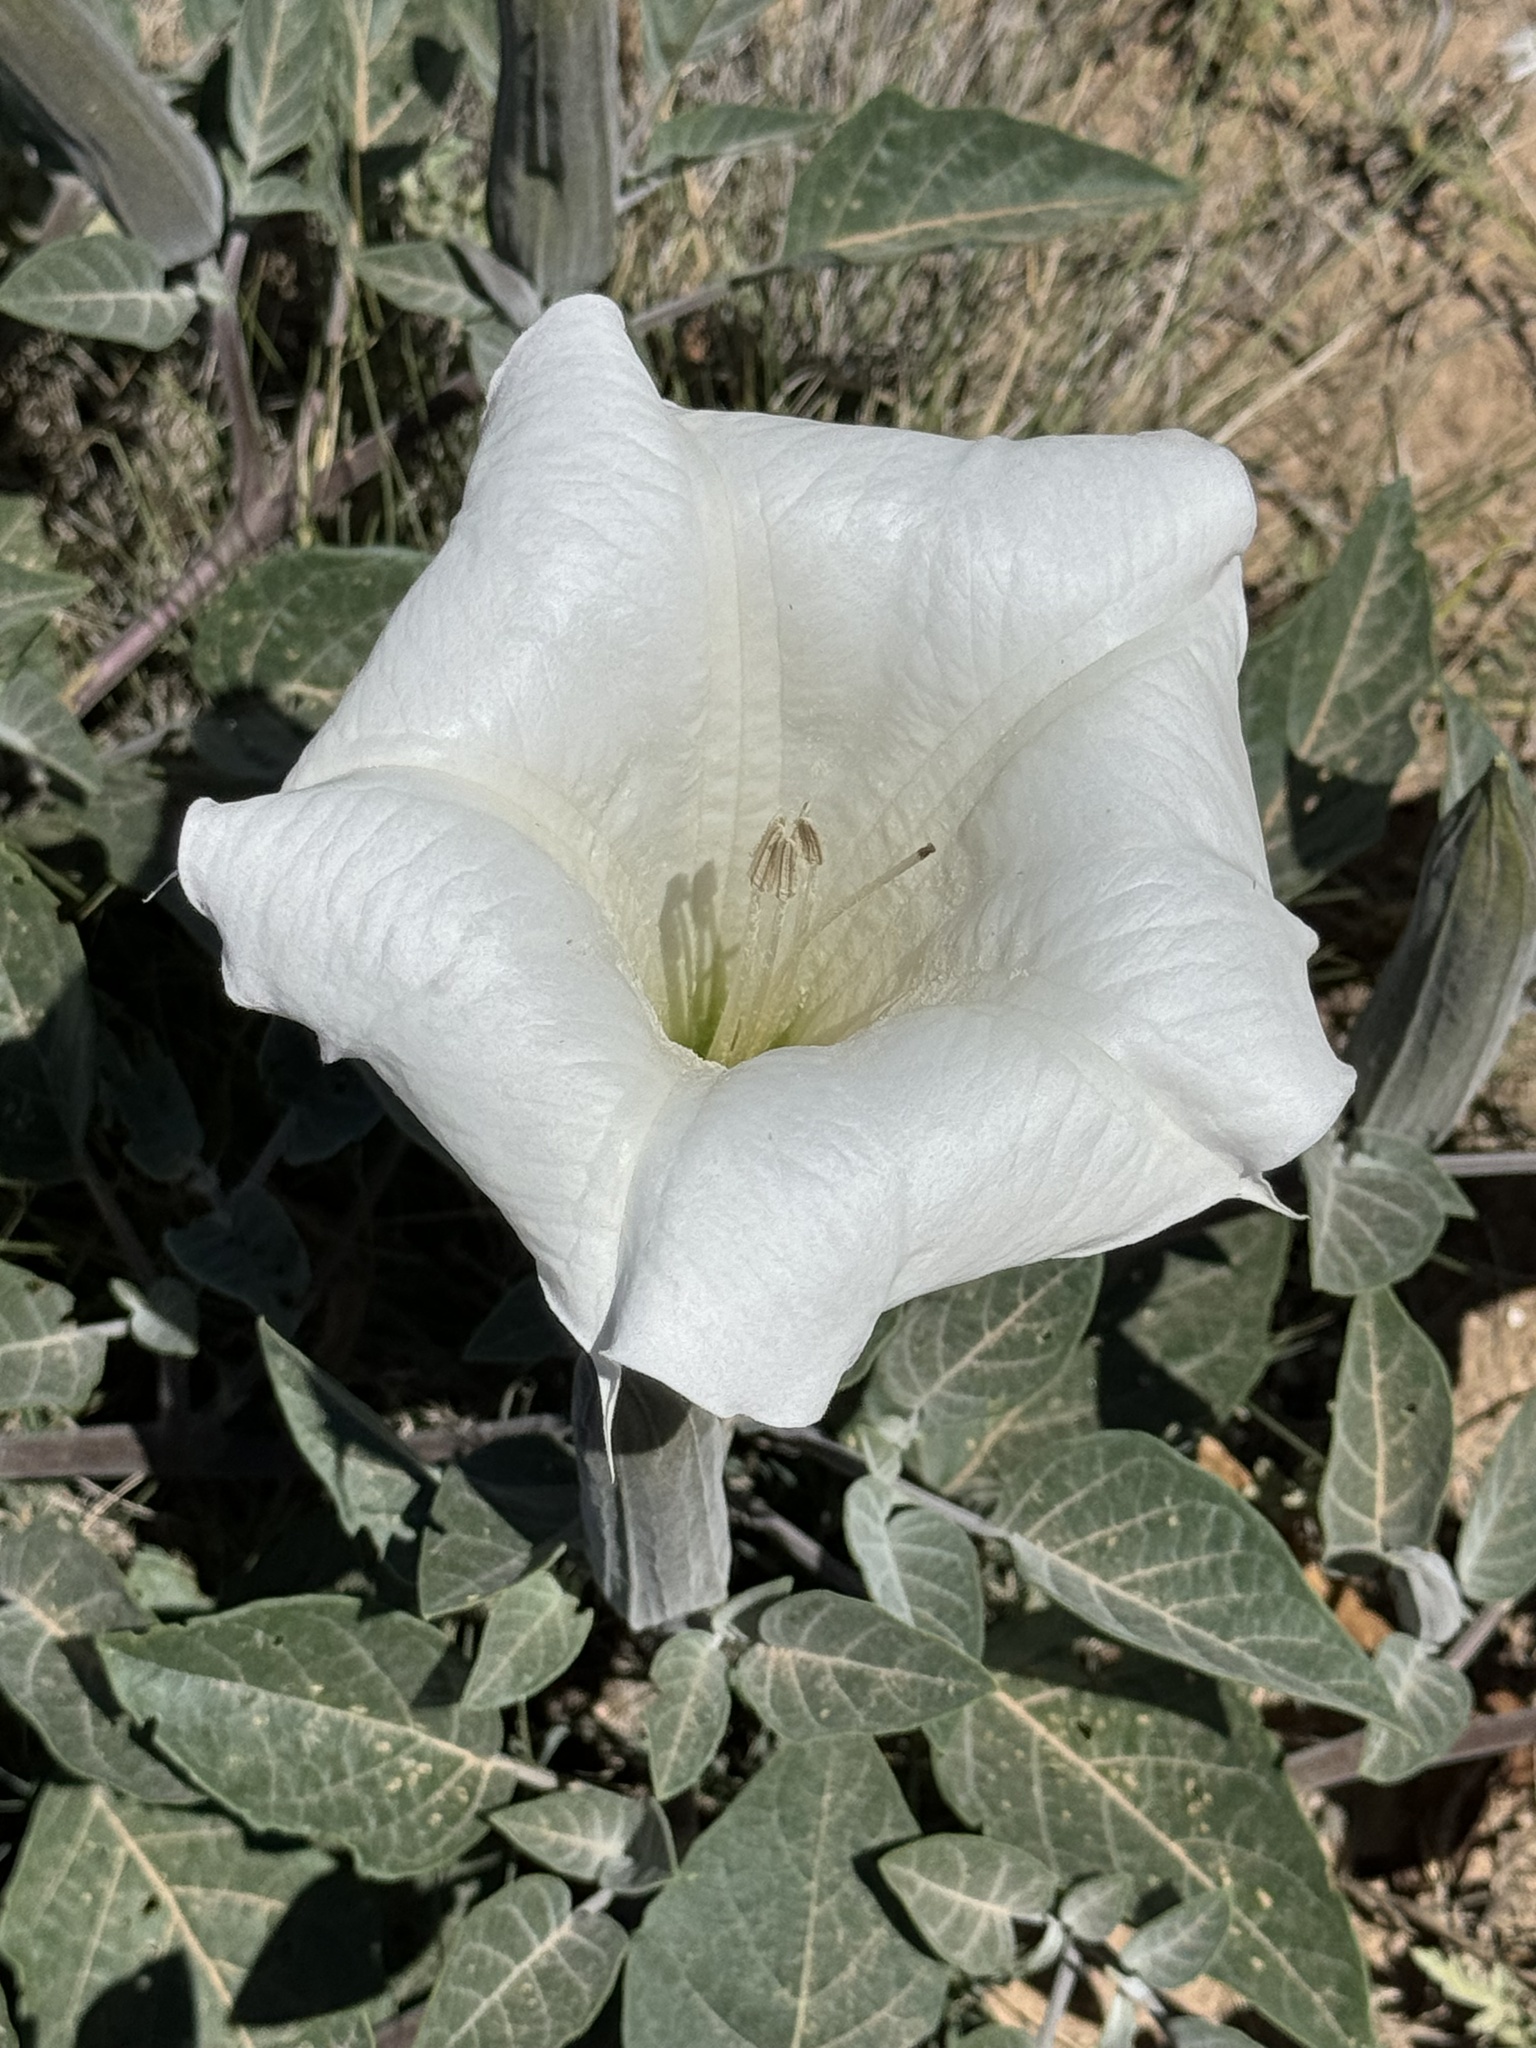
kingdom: Plantae
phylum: Tracheophyta
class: Magnoliopsida
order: Solanales
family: Solanaceae
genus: Datura
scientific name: Datura wrightii
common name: Sacred thorn-apple
